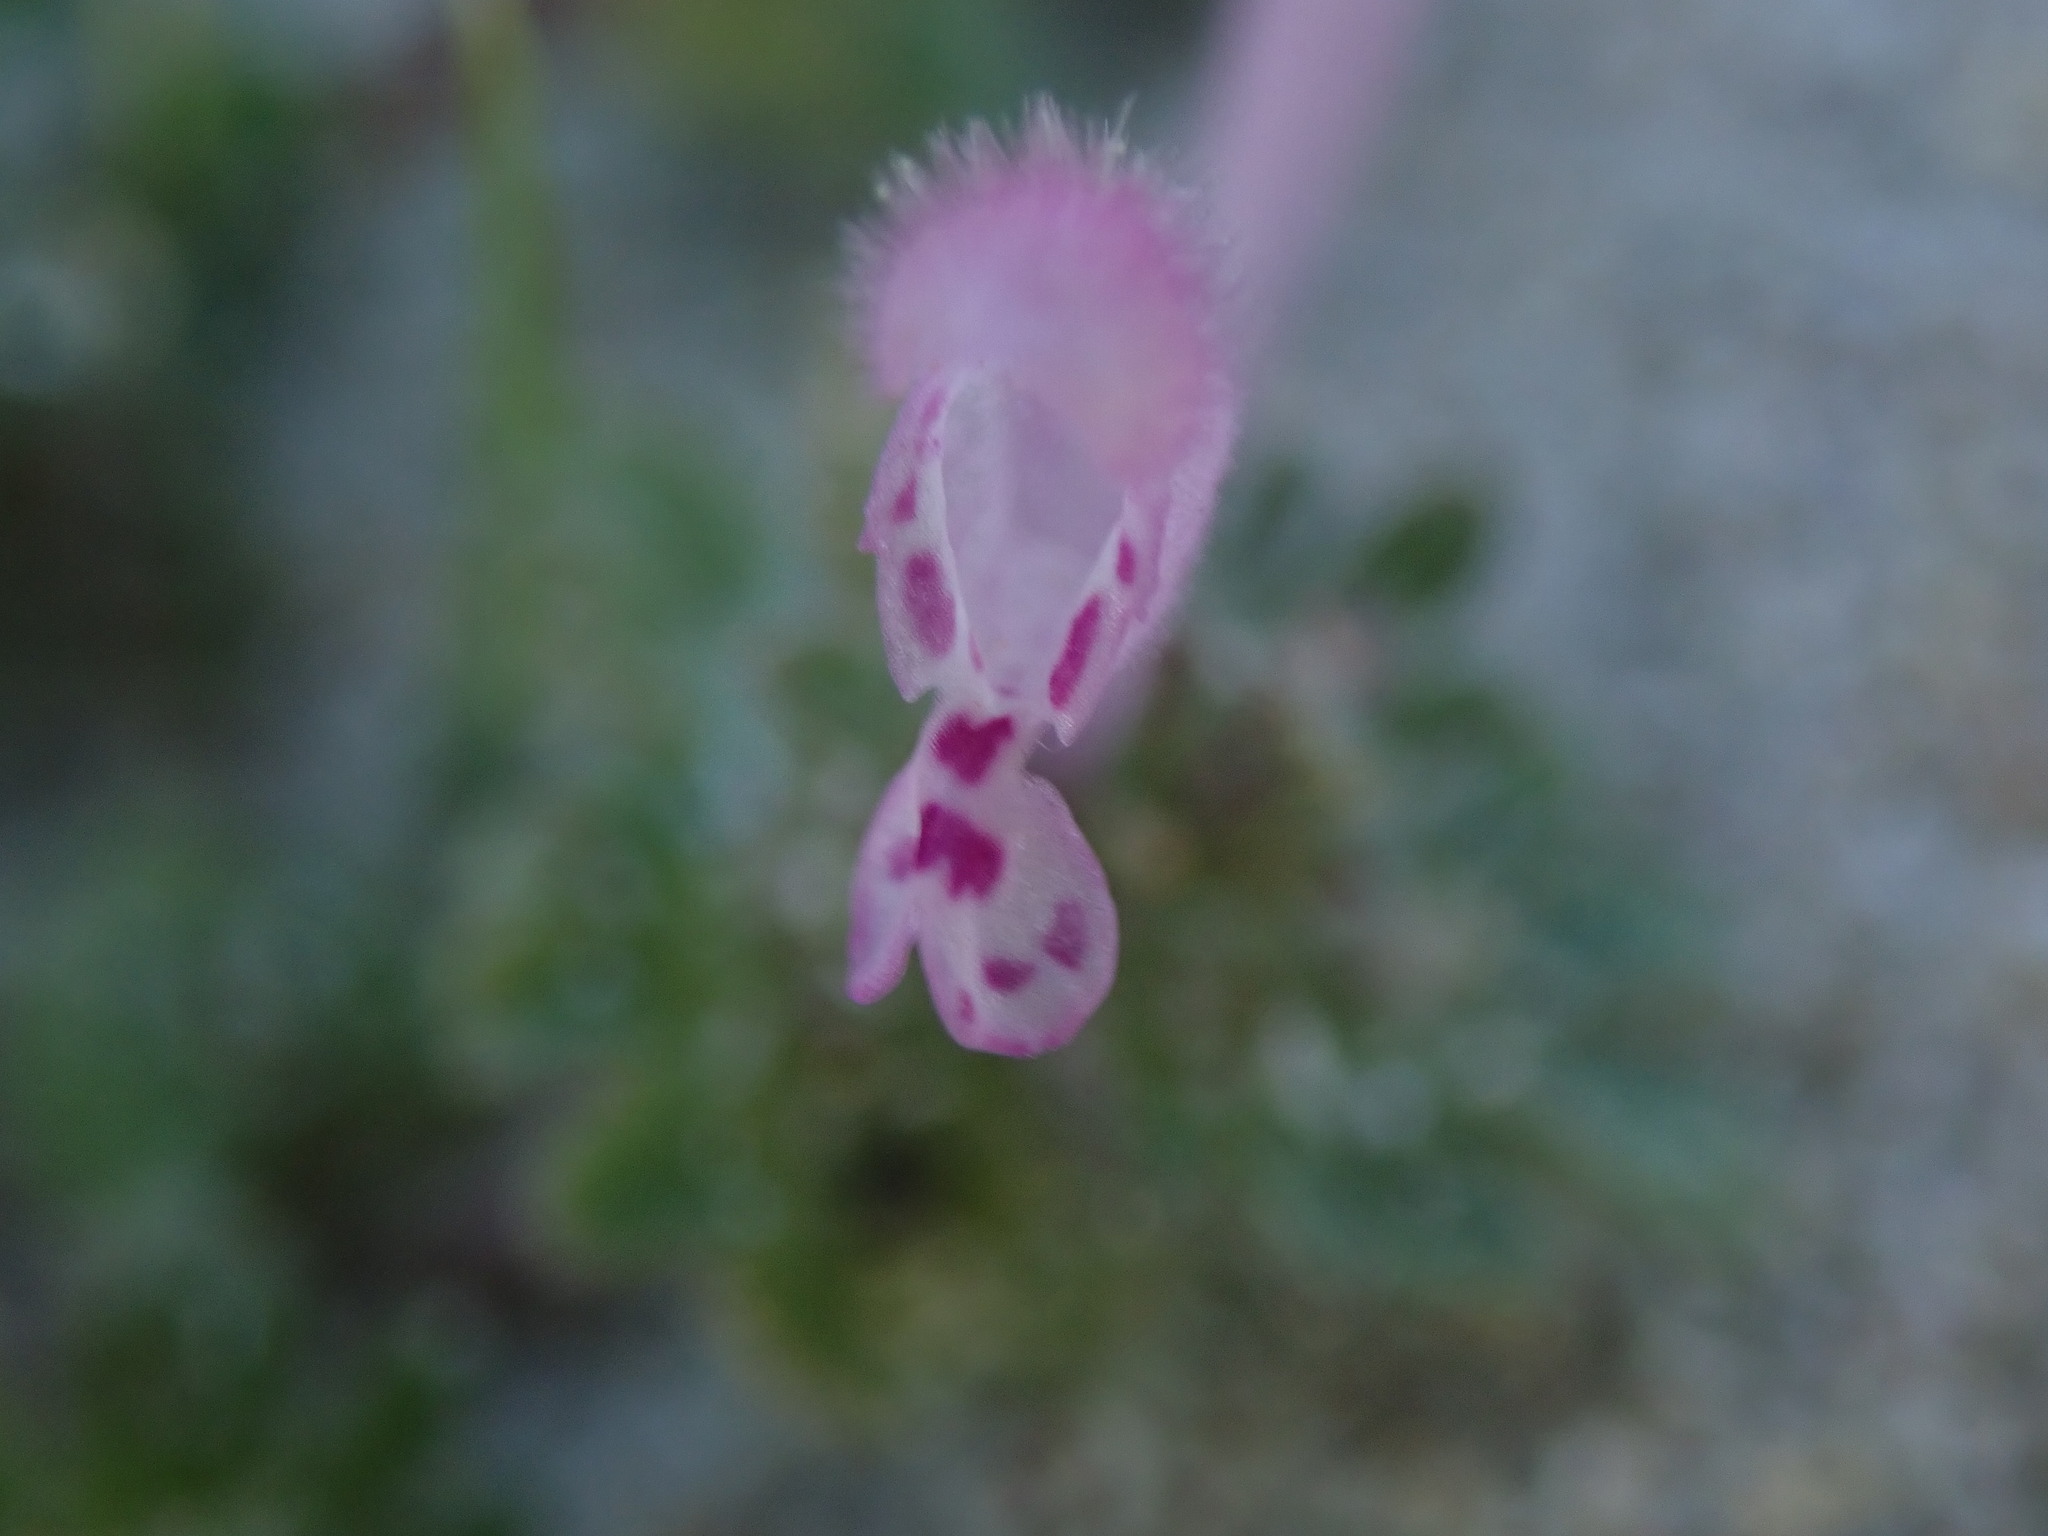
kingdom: Plantae
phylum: Tracheophyta
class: Magnoliopsida
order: Lamiales
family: Lamiaceae
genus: Lamium
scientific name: Lamium amplexicaule
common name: Henbit dead-nettle
